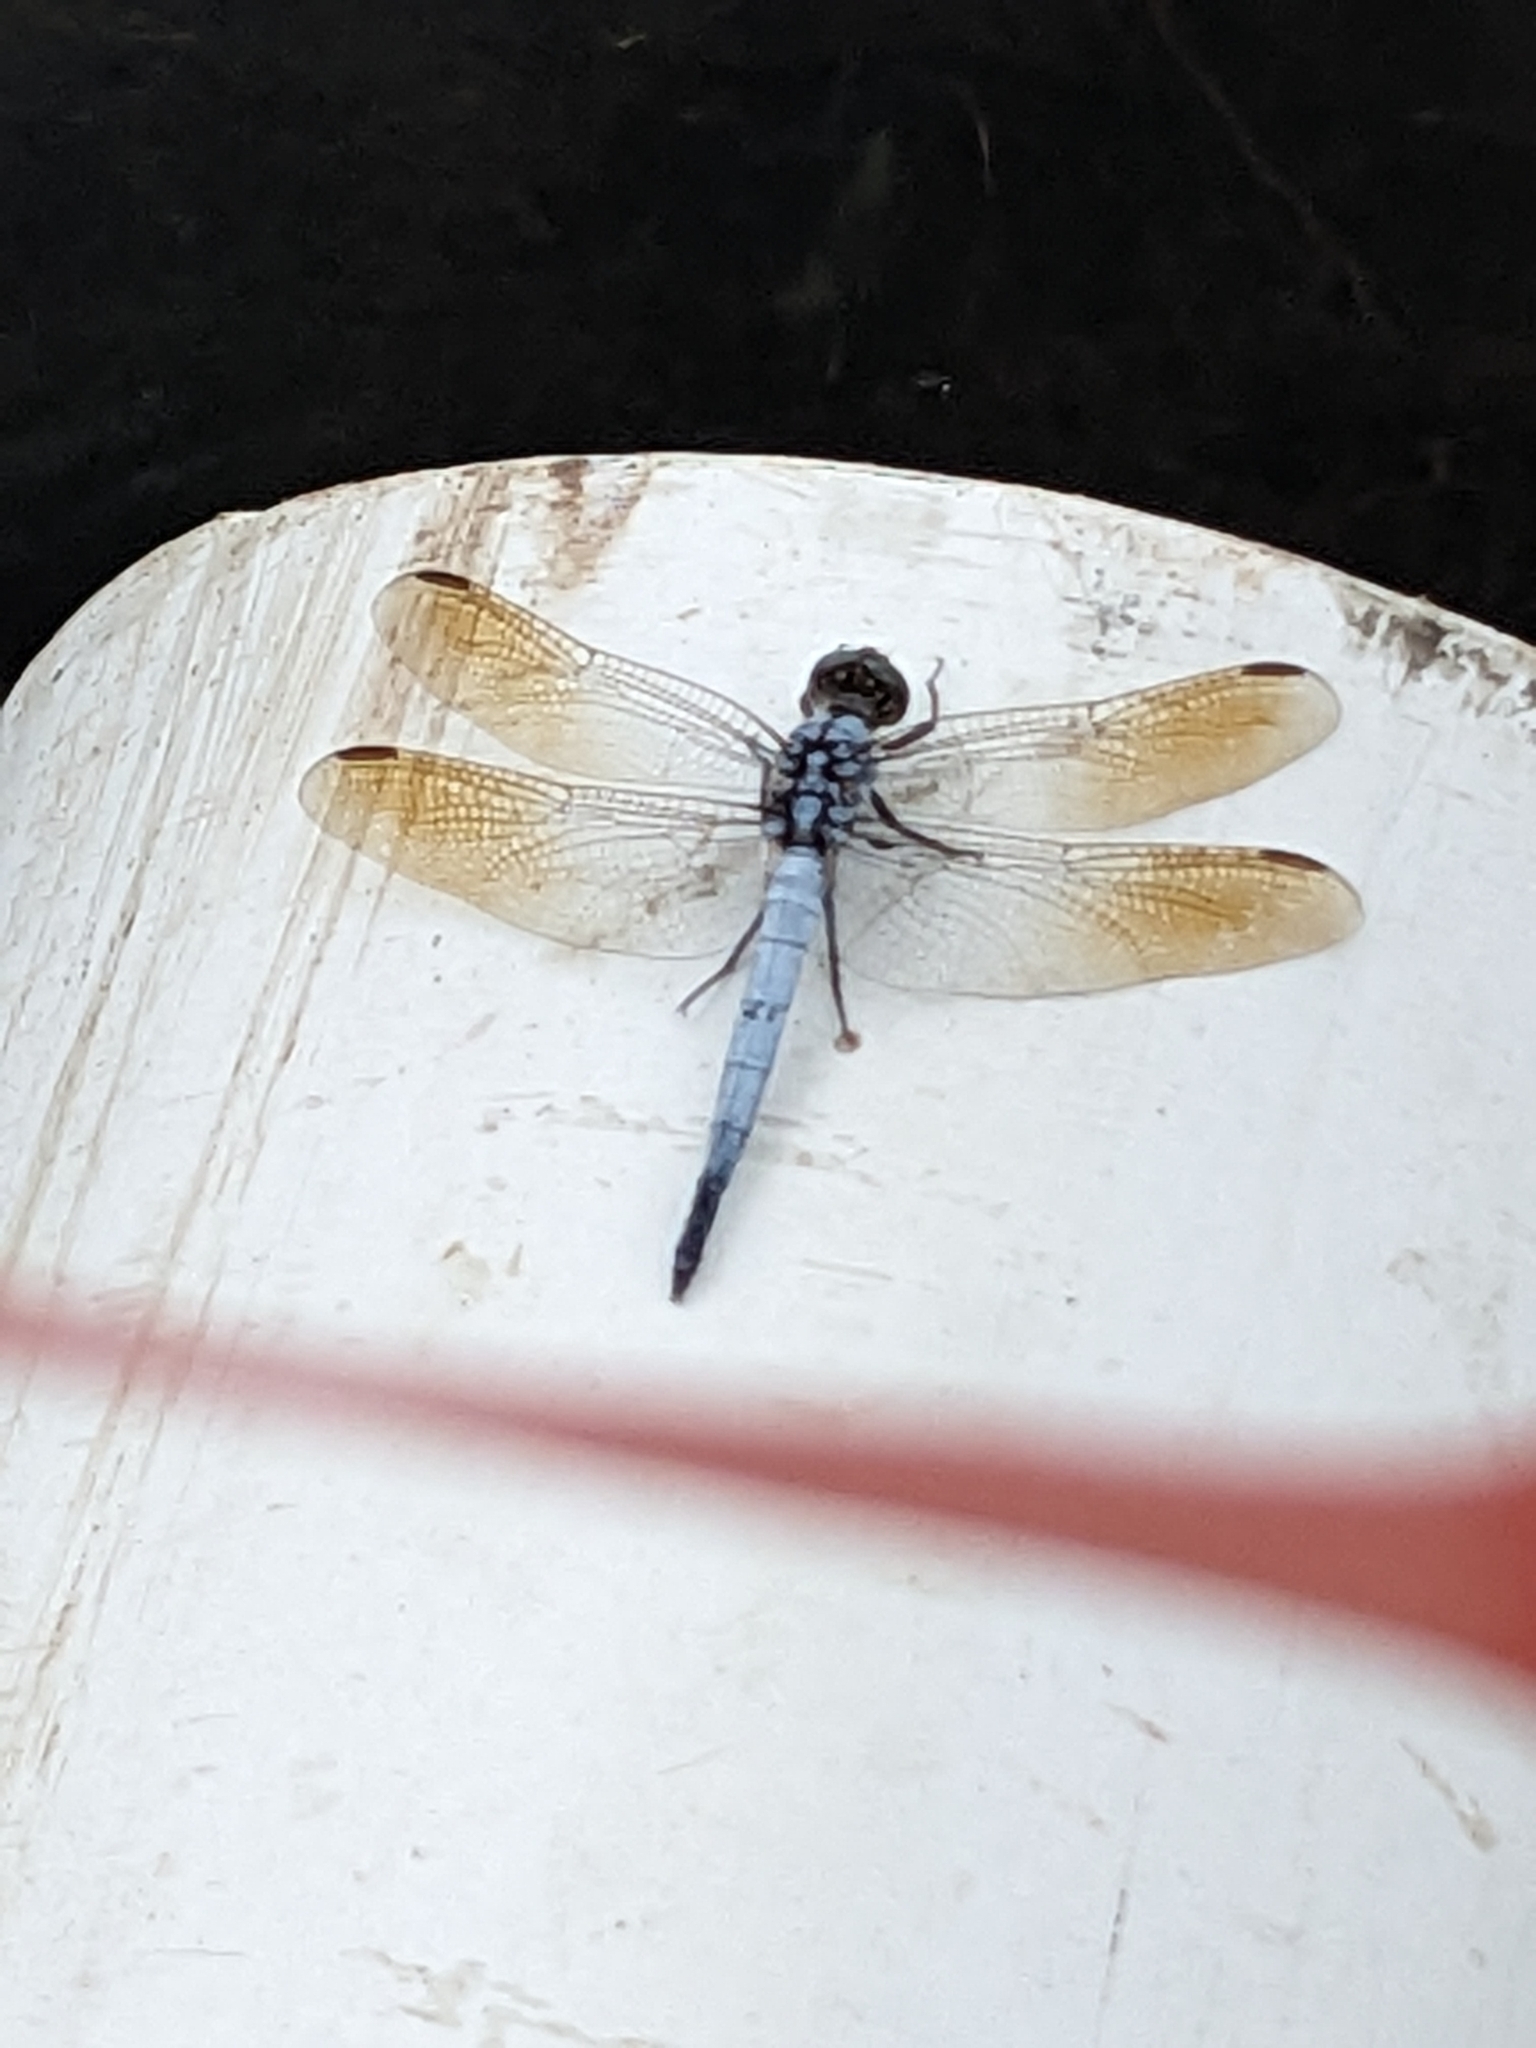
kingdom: Animalia
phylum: Arthropoda
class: Insecta
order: Odonata
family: Libellulidae
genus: Orthetrum
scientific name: Orthetrum caledonicum
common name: Blue skimmer
